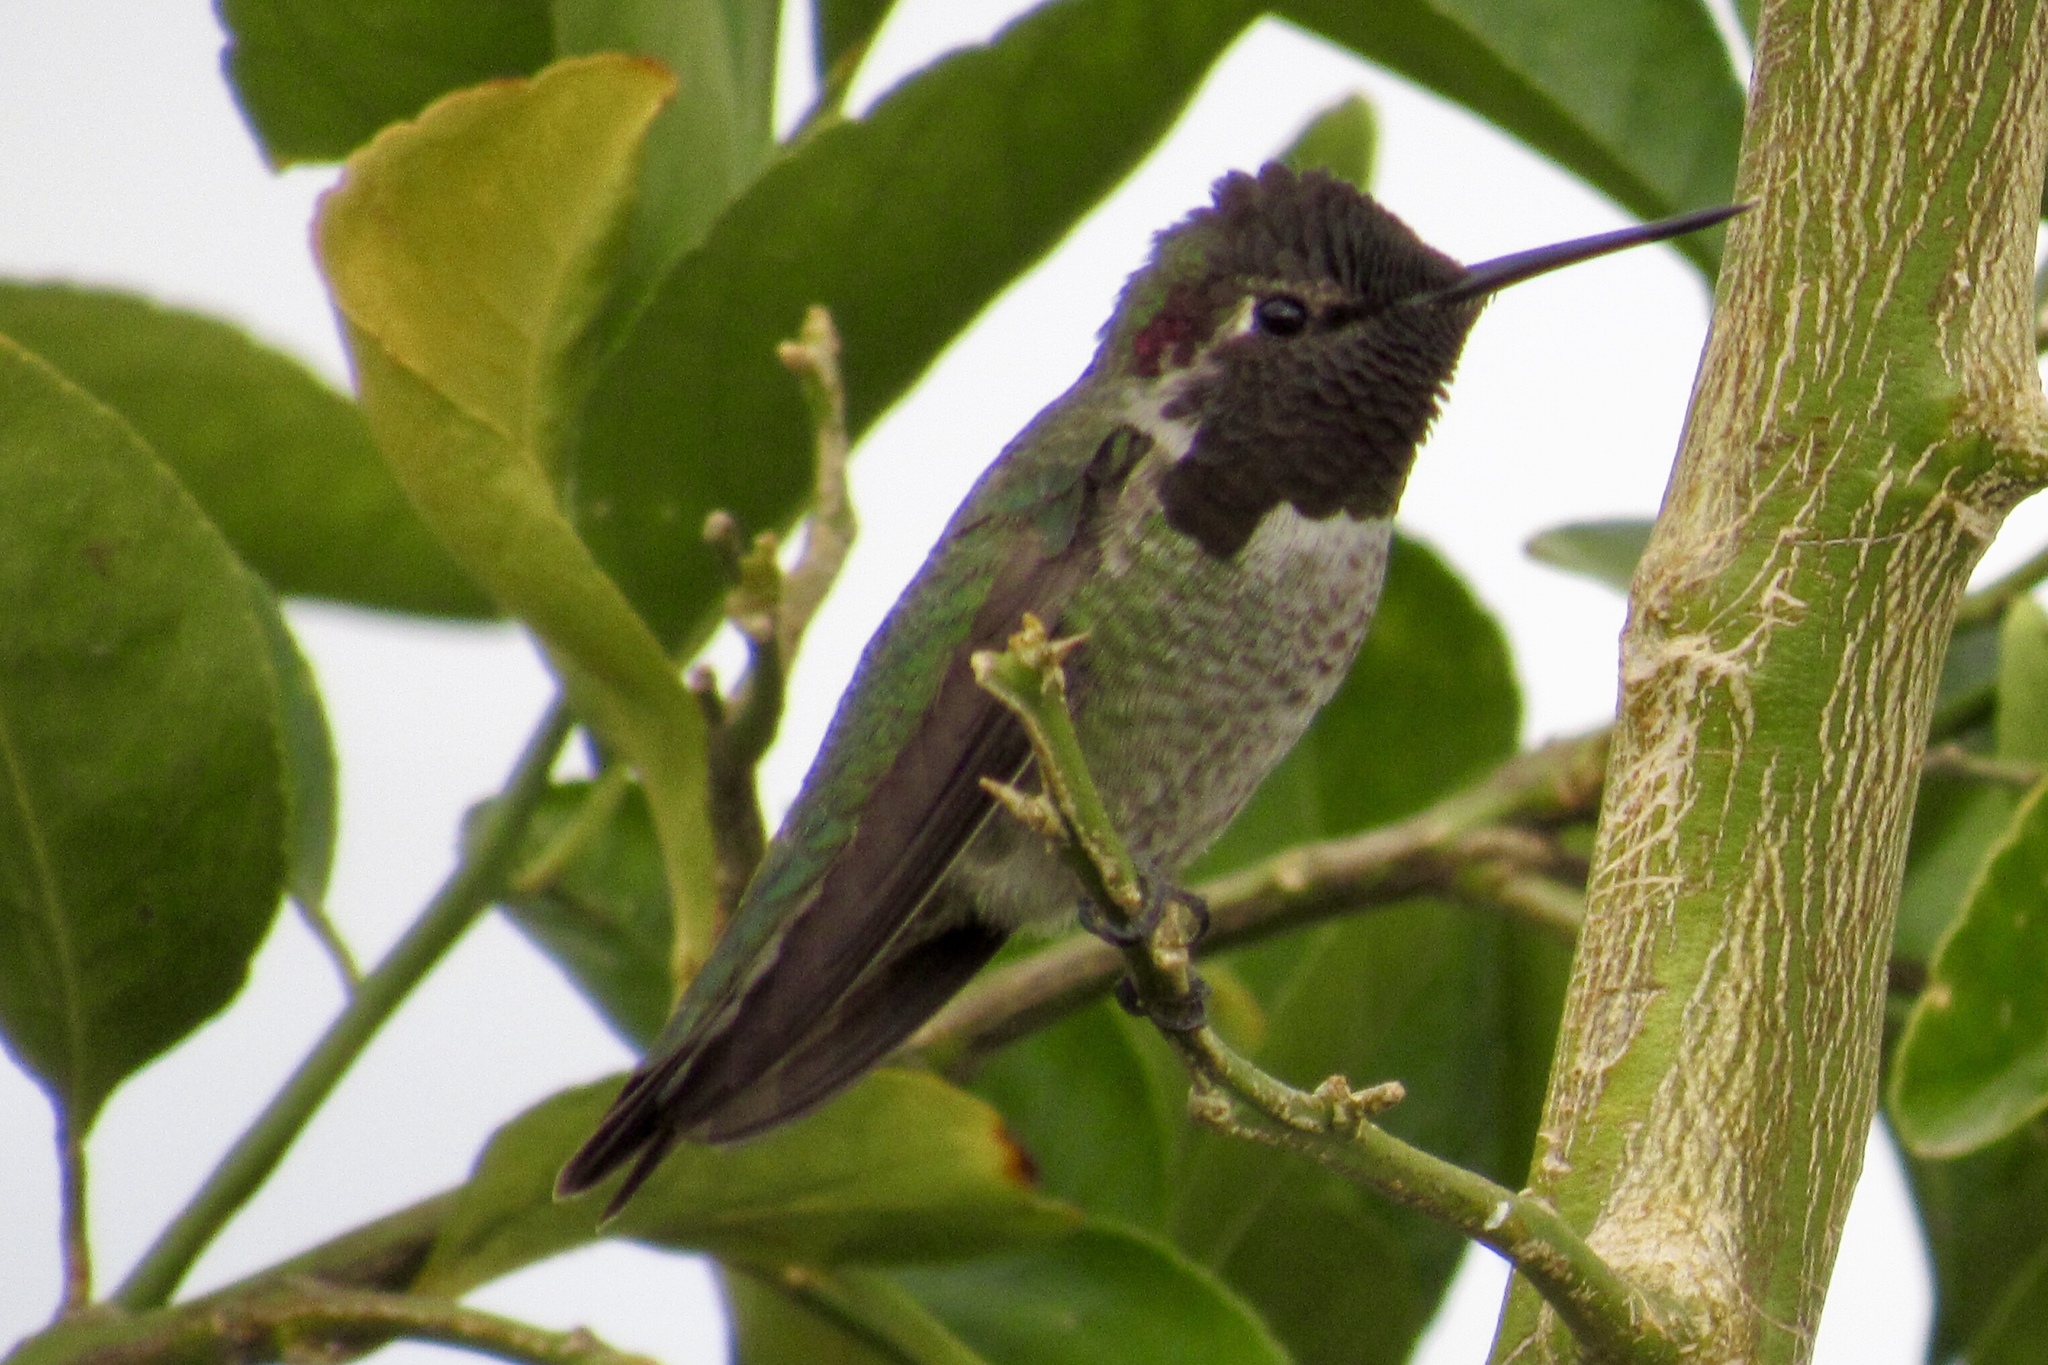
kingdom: Animalia
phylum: Chordata
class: Aves
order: Apodiformes
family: Trochilidae
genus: Calypte
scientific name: Calypte anna
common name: Anna's hummingbird
